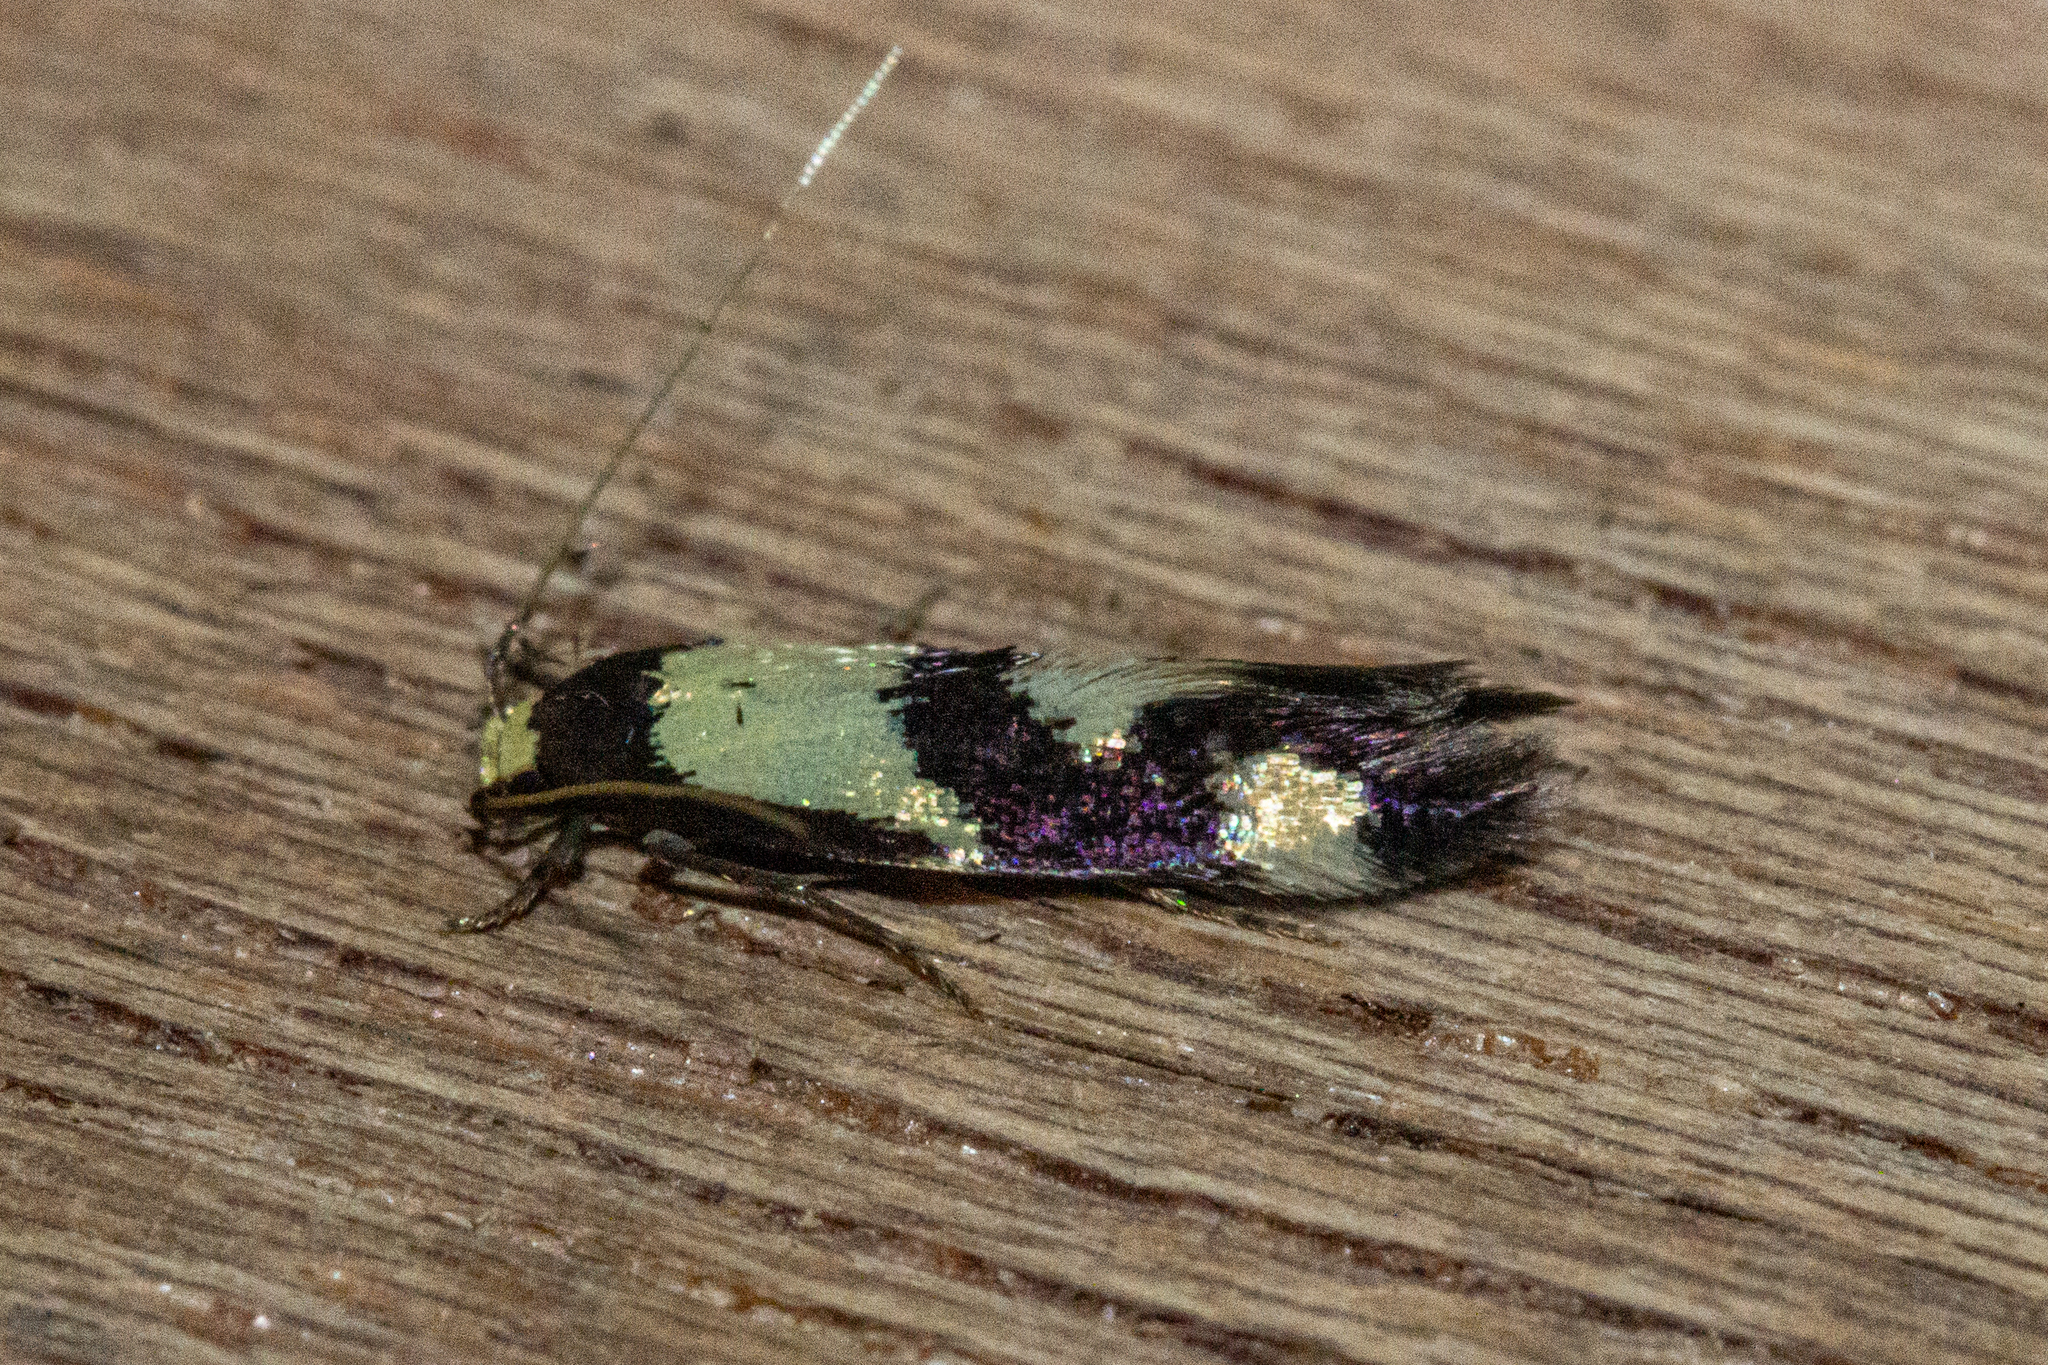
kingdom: Animalia
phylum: Arthropoda
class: Insecta
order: Lepidoptera
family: Tineidae
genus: Opogona
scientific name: Opogona comptella
